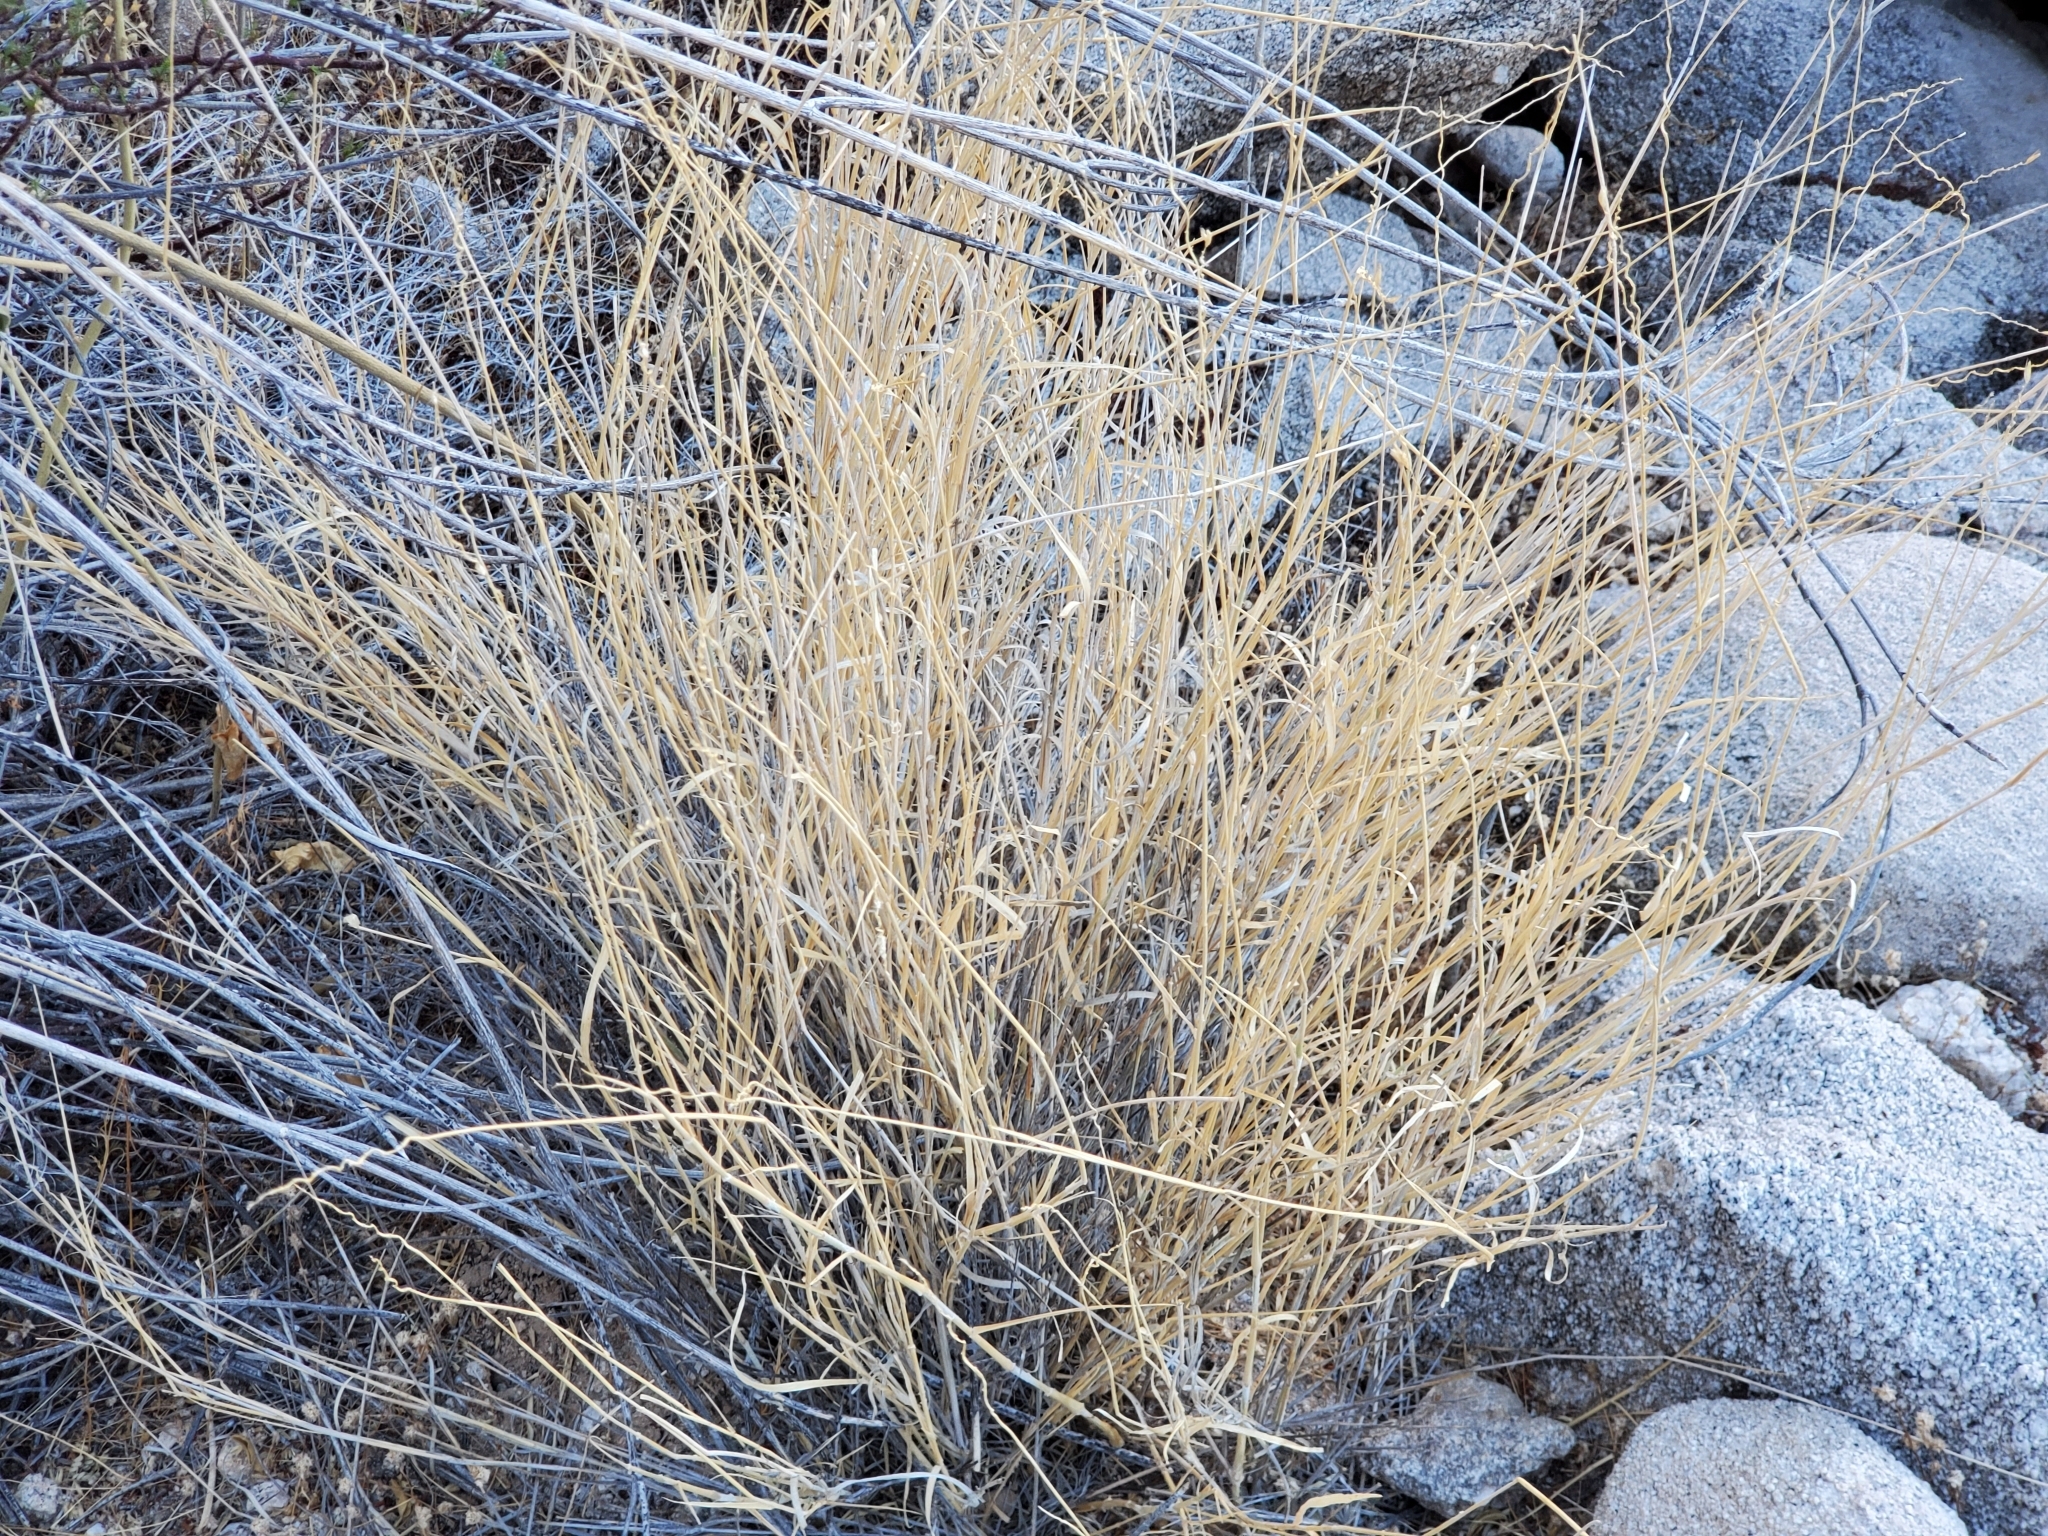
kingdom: Plantae
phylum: Tracheophyta
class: Liliopsida
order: Poales
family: Poaceae
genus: Hilaria
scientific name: Hilaria rigida
